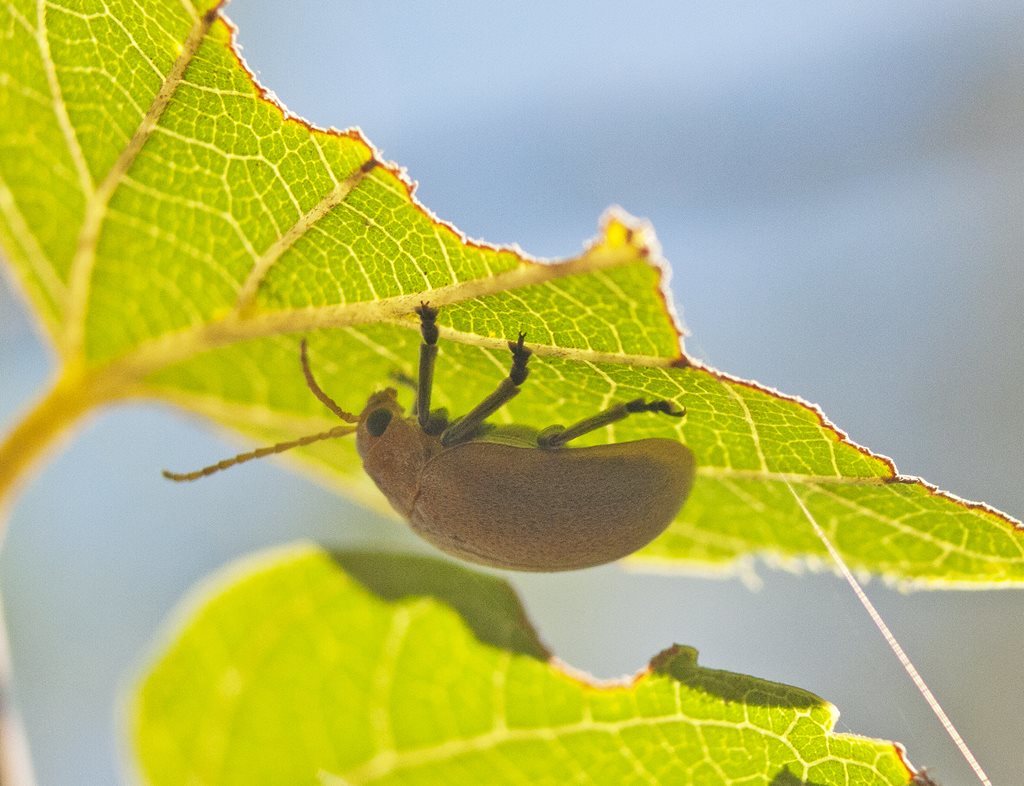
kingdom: Animalia
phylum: Arthropoda
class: Insecta
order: Coleoptera
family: Chrysomelidae
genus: Menippus
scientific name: Menippus
